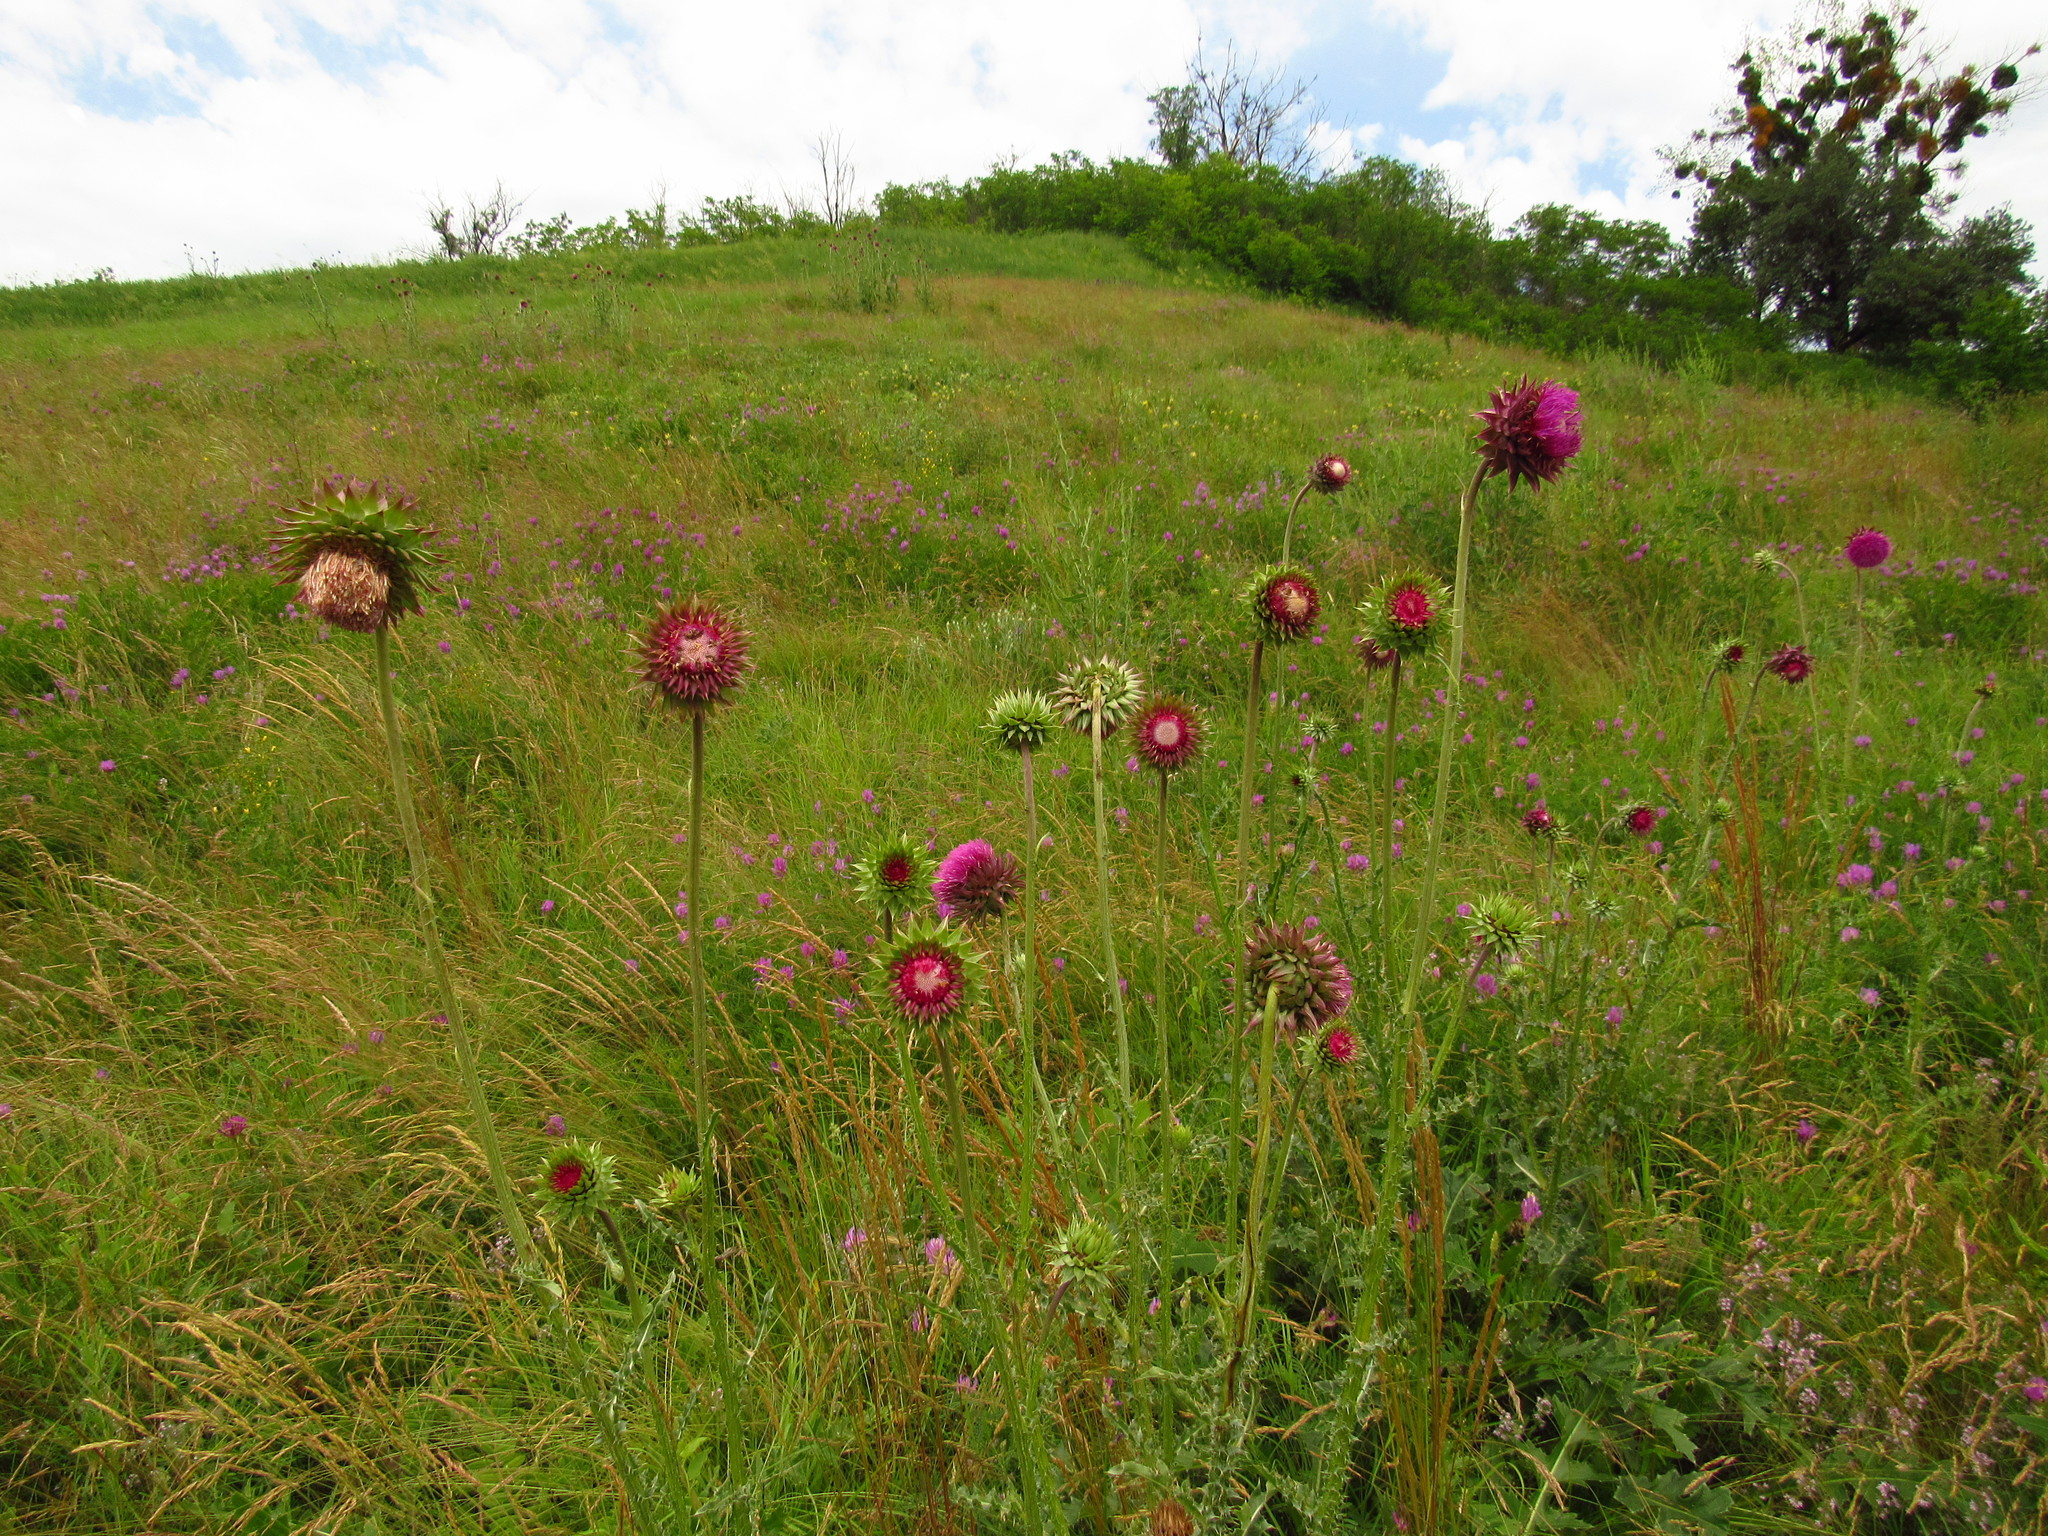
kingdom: Plantae
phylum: Tracheophyta
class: Magnoliopsida
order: Asterales
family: Asteraceae
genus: Carduus
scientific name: Carduus nutans
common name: Musk thistle
